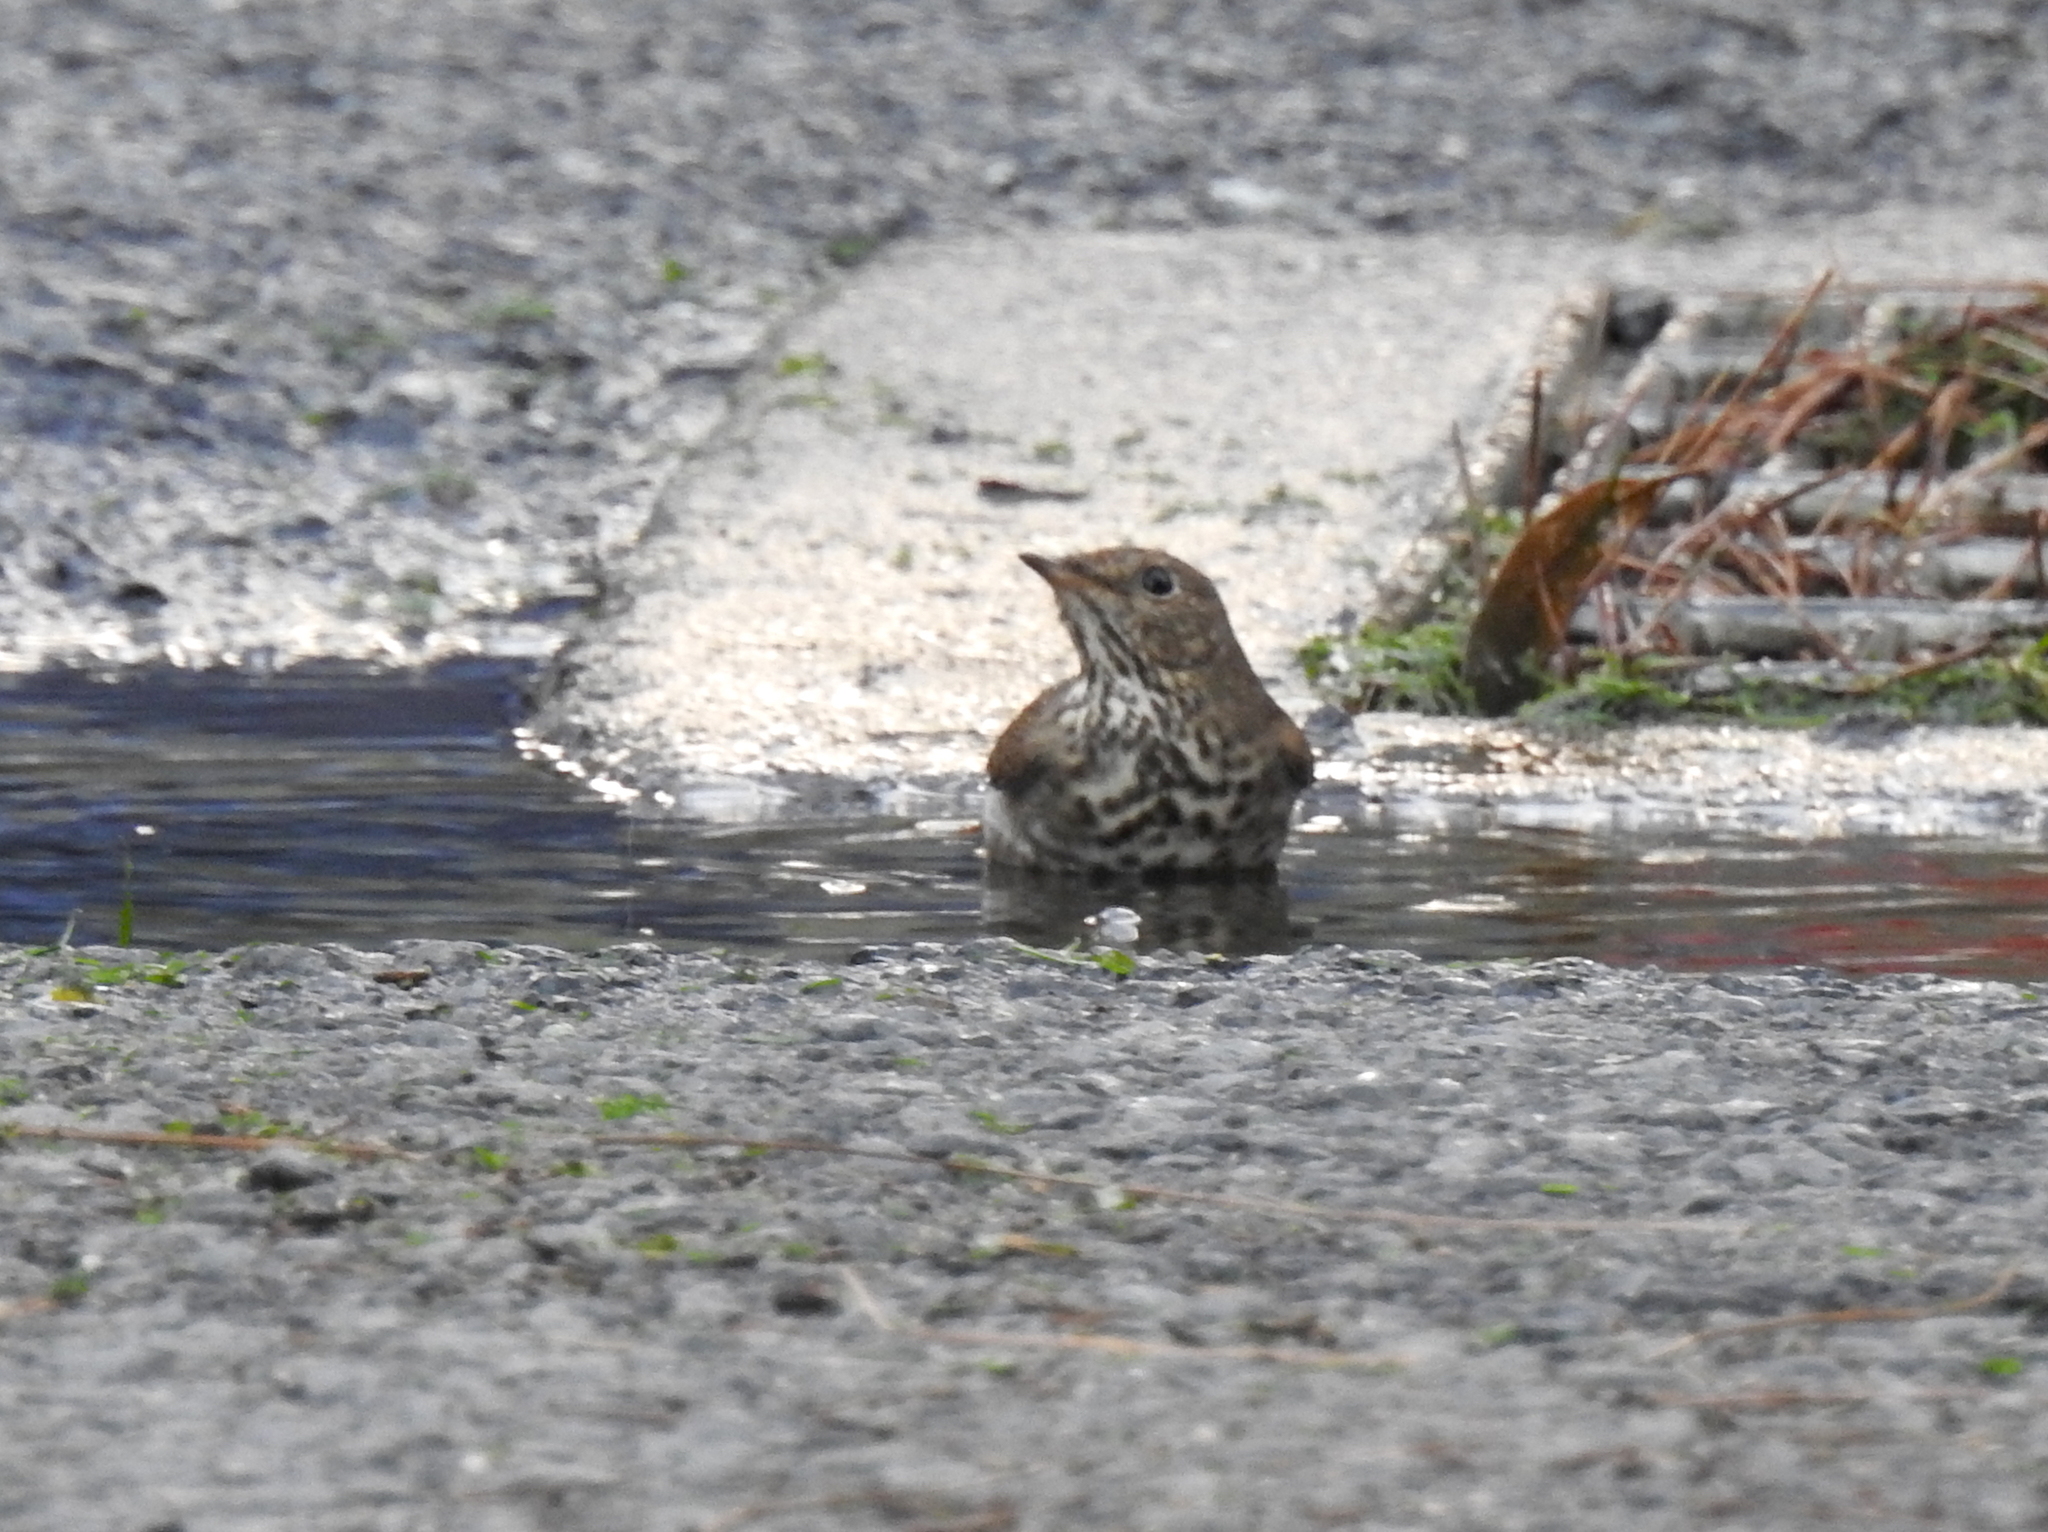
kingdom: Animalia
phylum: Chordata
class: Aves
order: Passeriformes
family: Turdidae
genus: Catharus
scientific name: Catharus guttatus
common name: Hermit thrush
